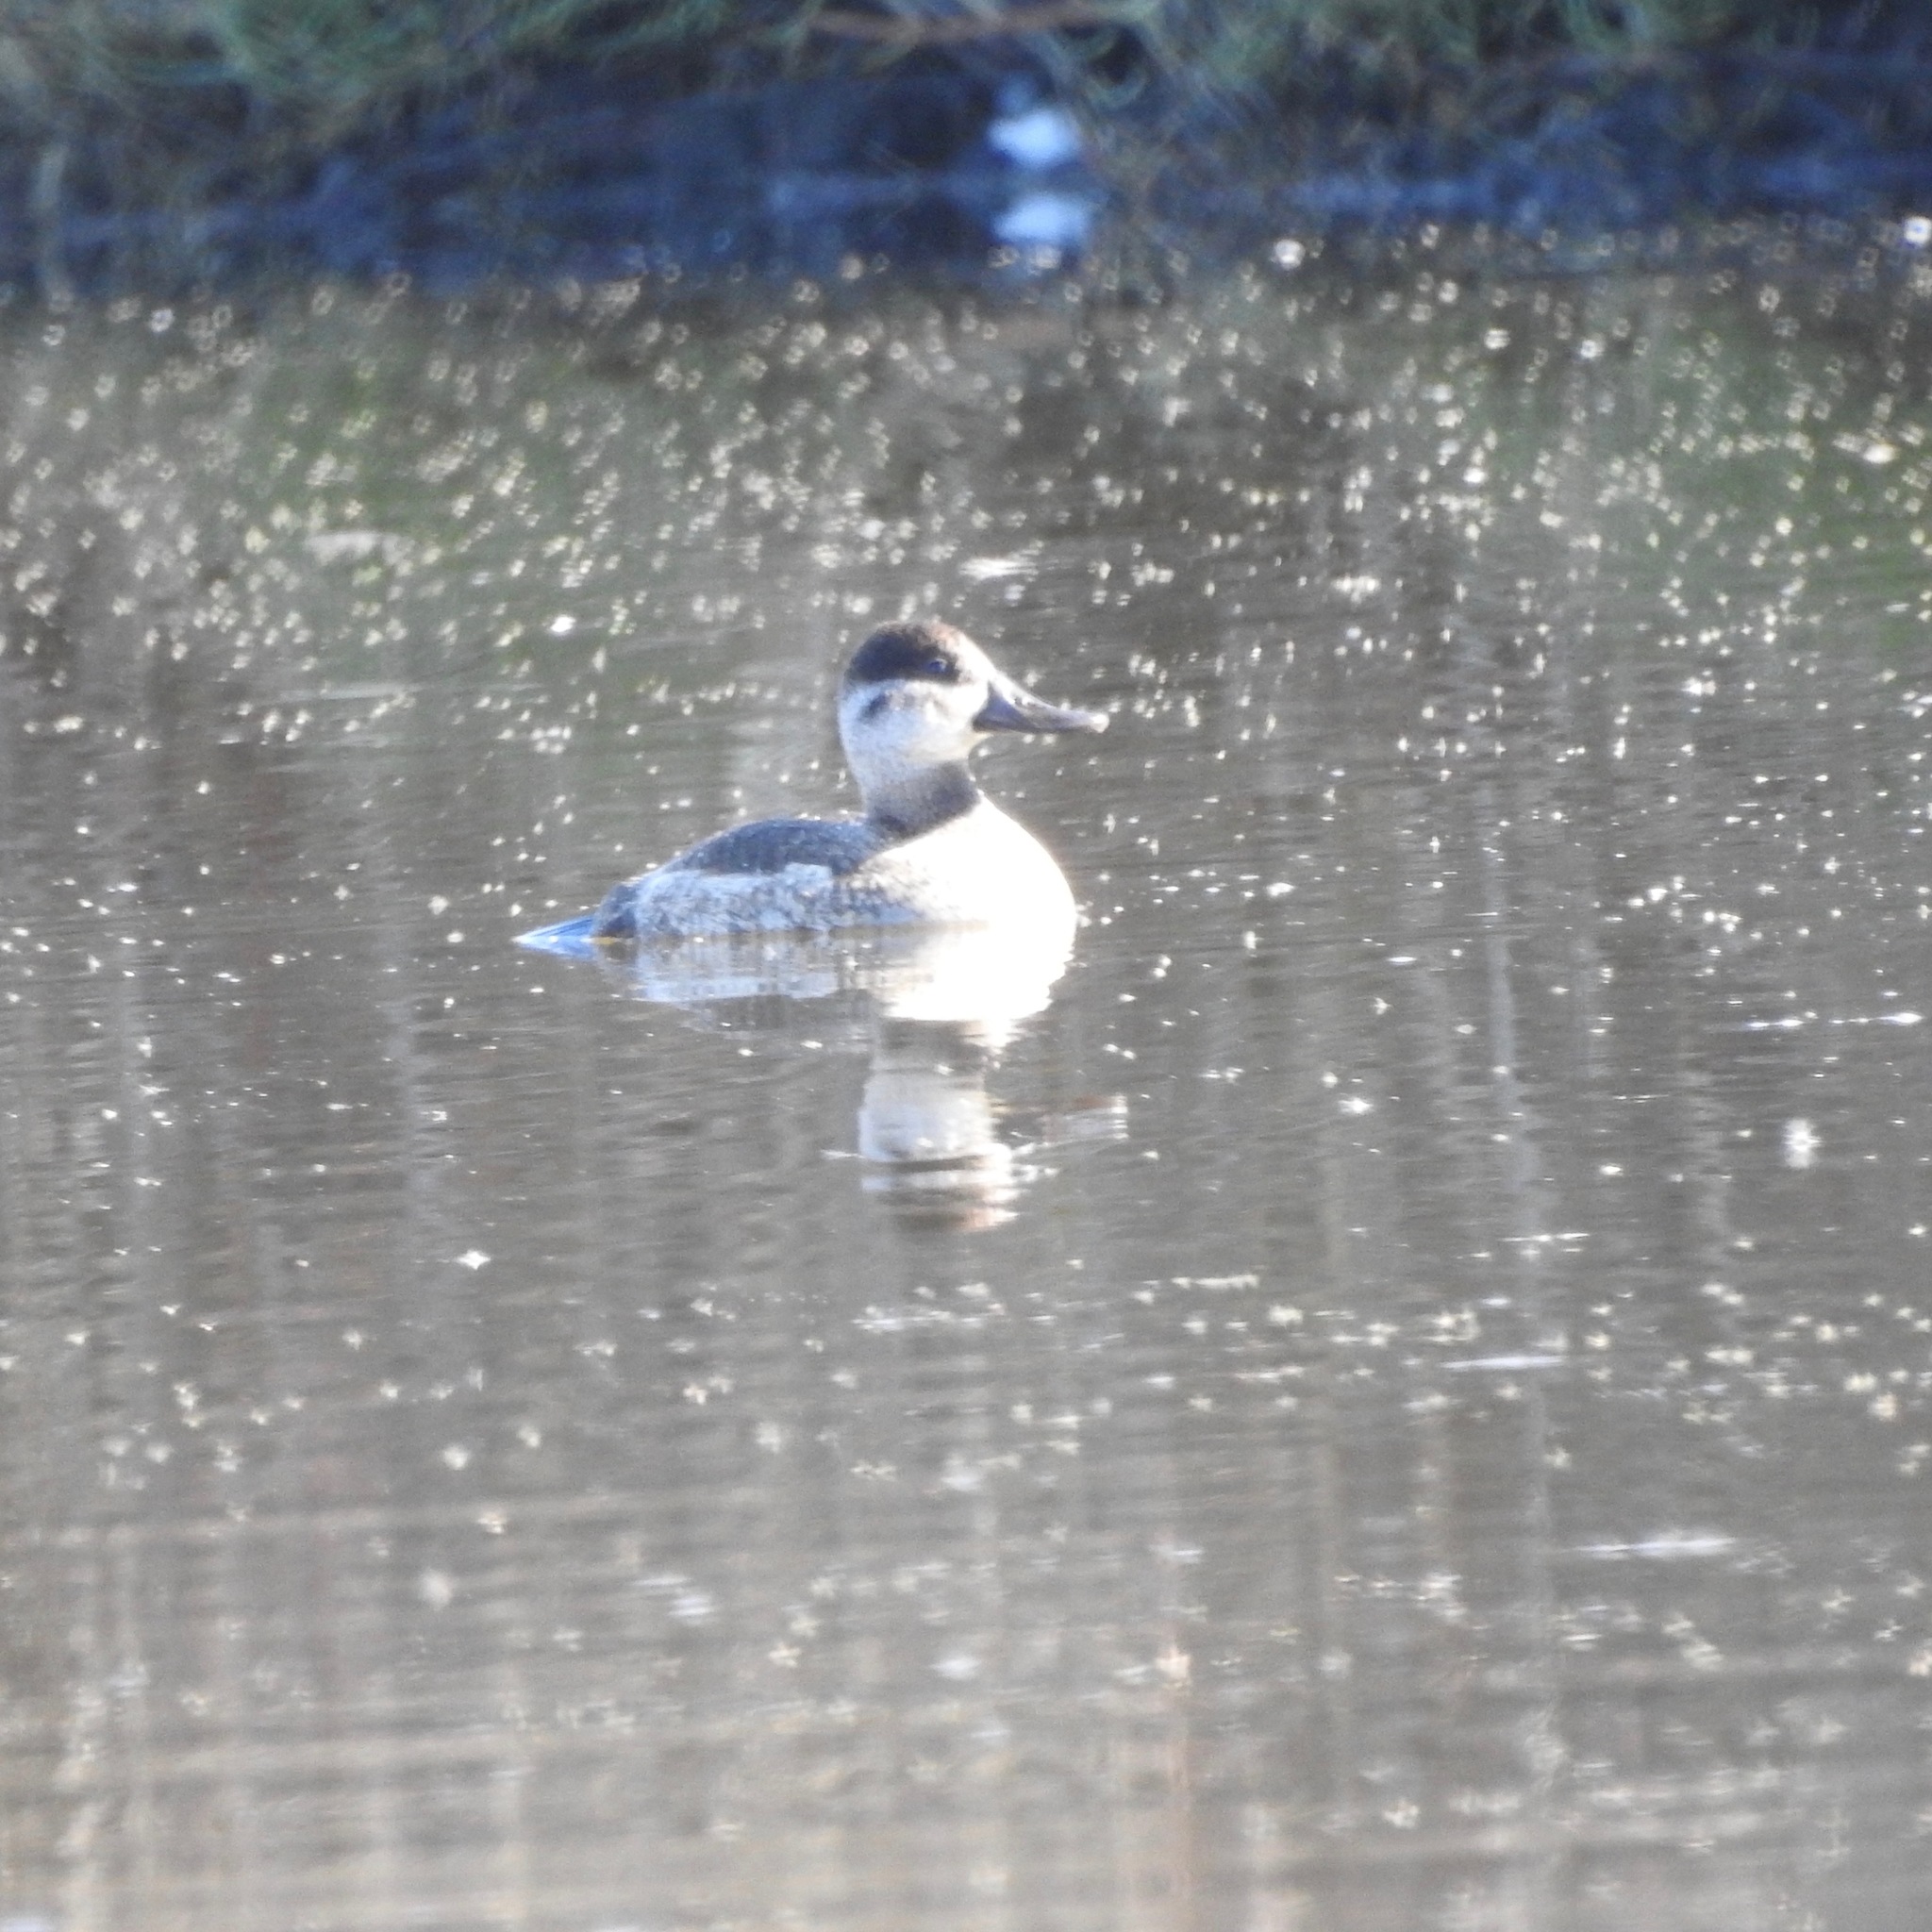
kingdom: Animalia
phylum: Chordata
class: Aves
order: Anseriformes
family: Anatidae
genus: Oxyura
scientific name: Oxyura jamaicensis
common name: Ruddy duck
